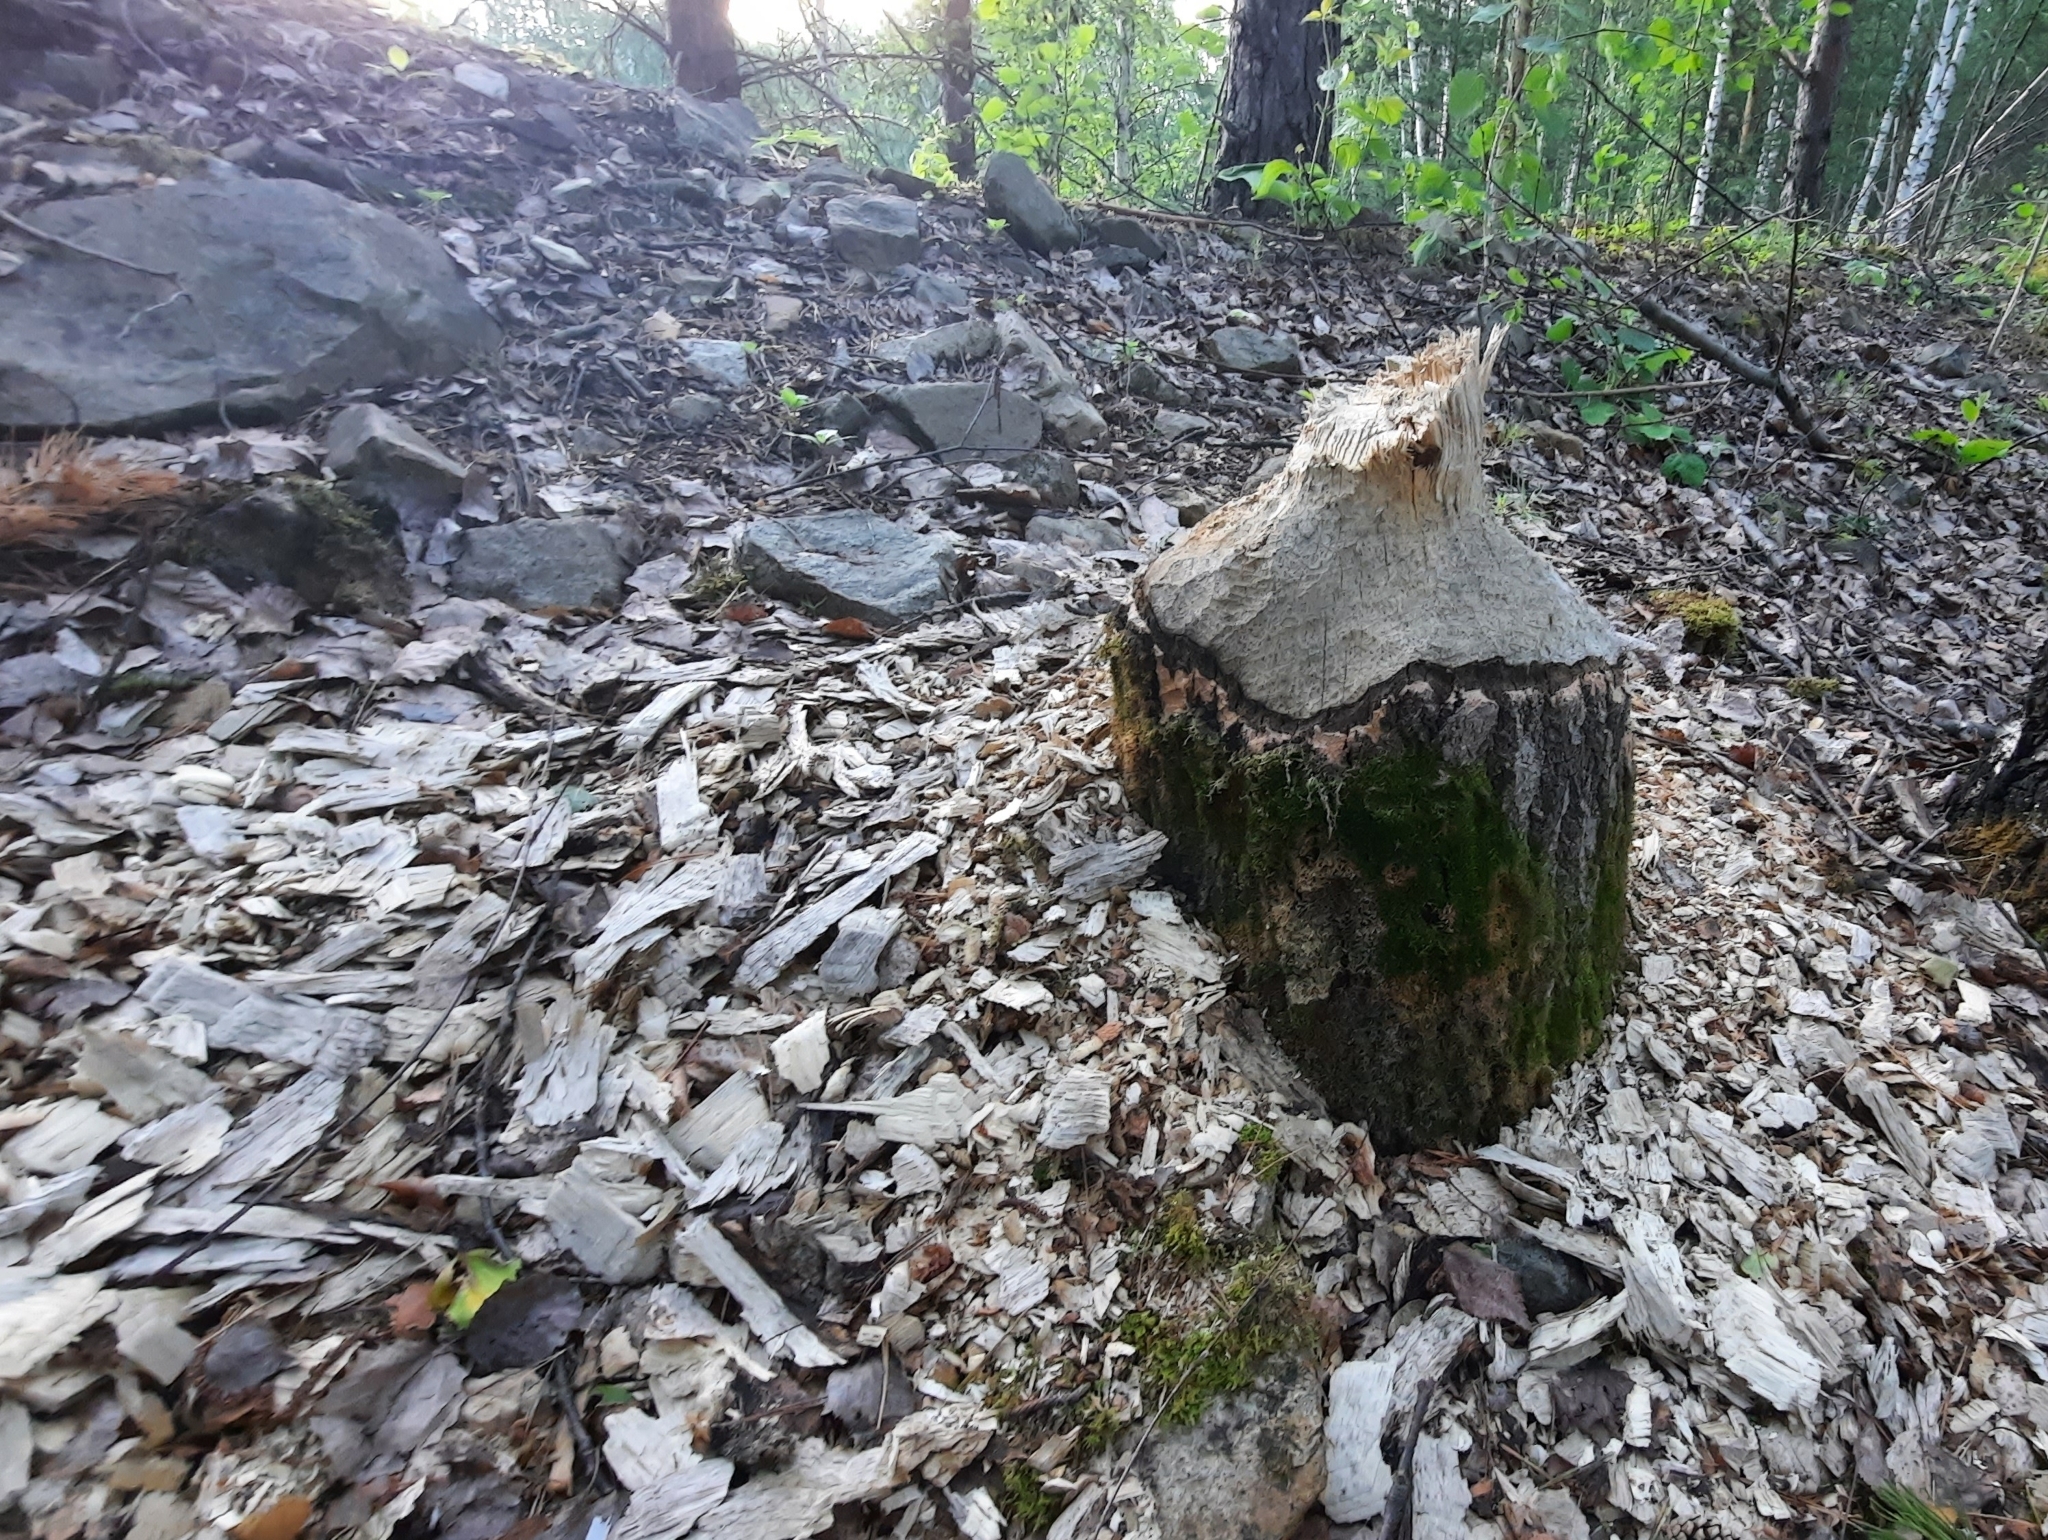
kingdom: Animalia
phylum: Chordata
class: Mammalia
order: Rodentia
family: Castoridae
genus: Castor
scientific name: Castor fiber
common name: Eurasian beaver
